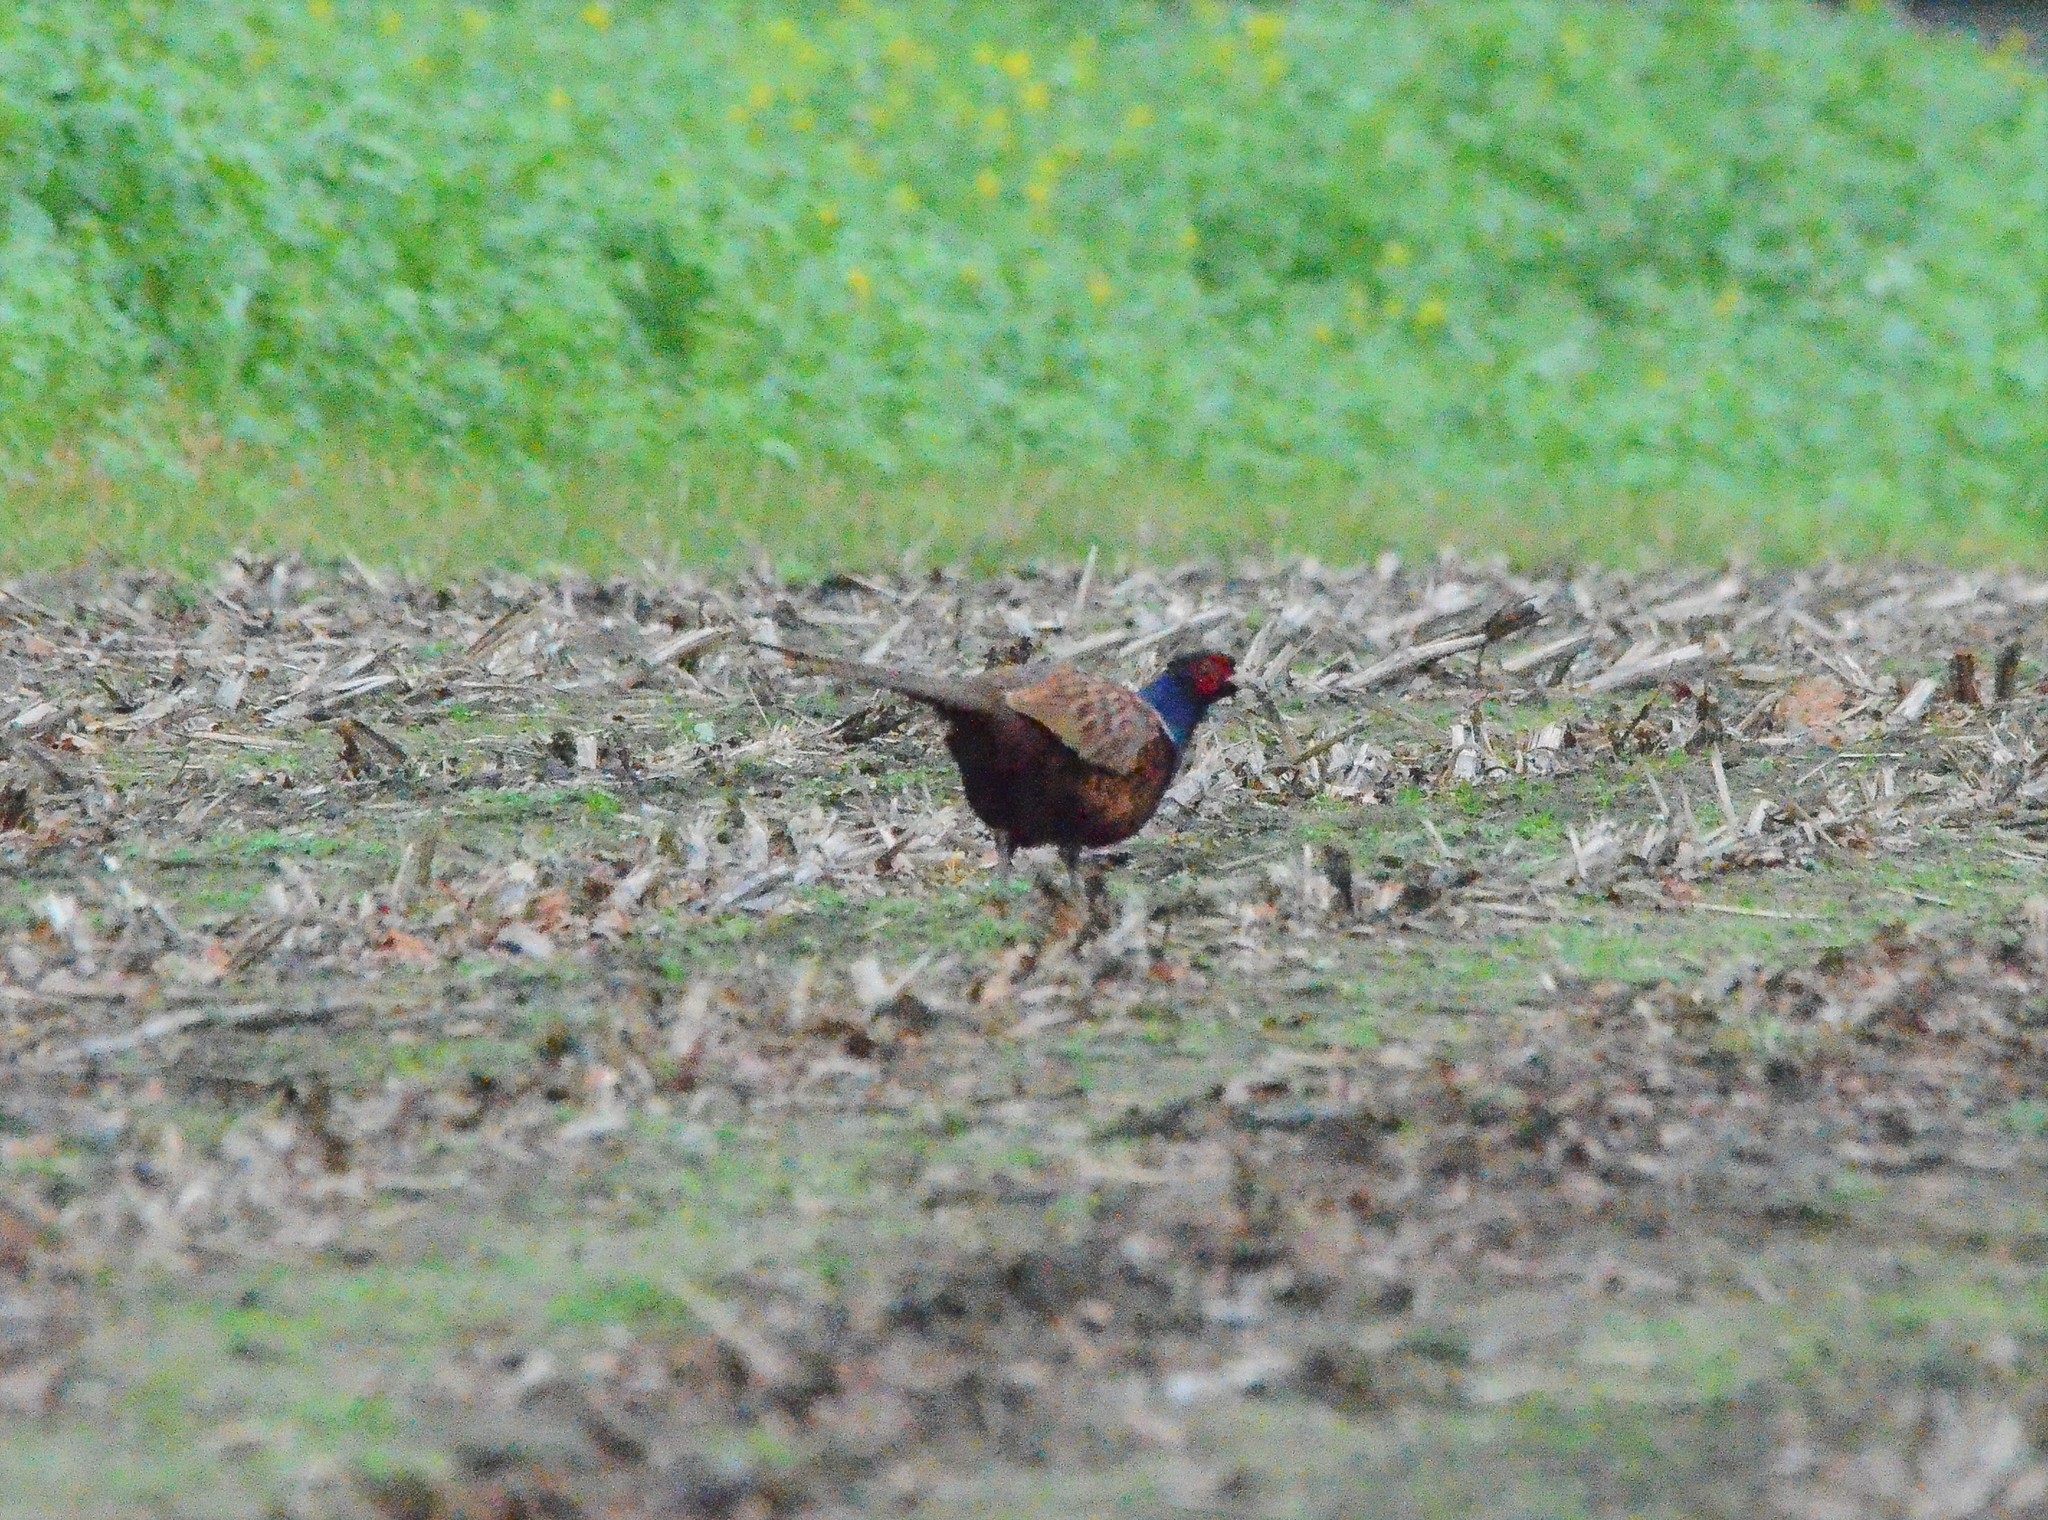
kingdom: Animalia
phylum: Chordata
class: Aves
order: Galliformes
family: Phasianidae
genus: Phasianus
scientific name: Phasianus colchicus
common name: Common pheasant
